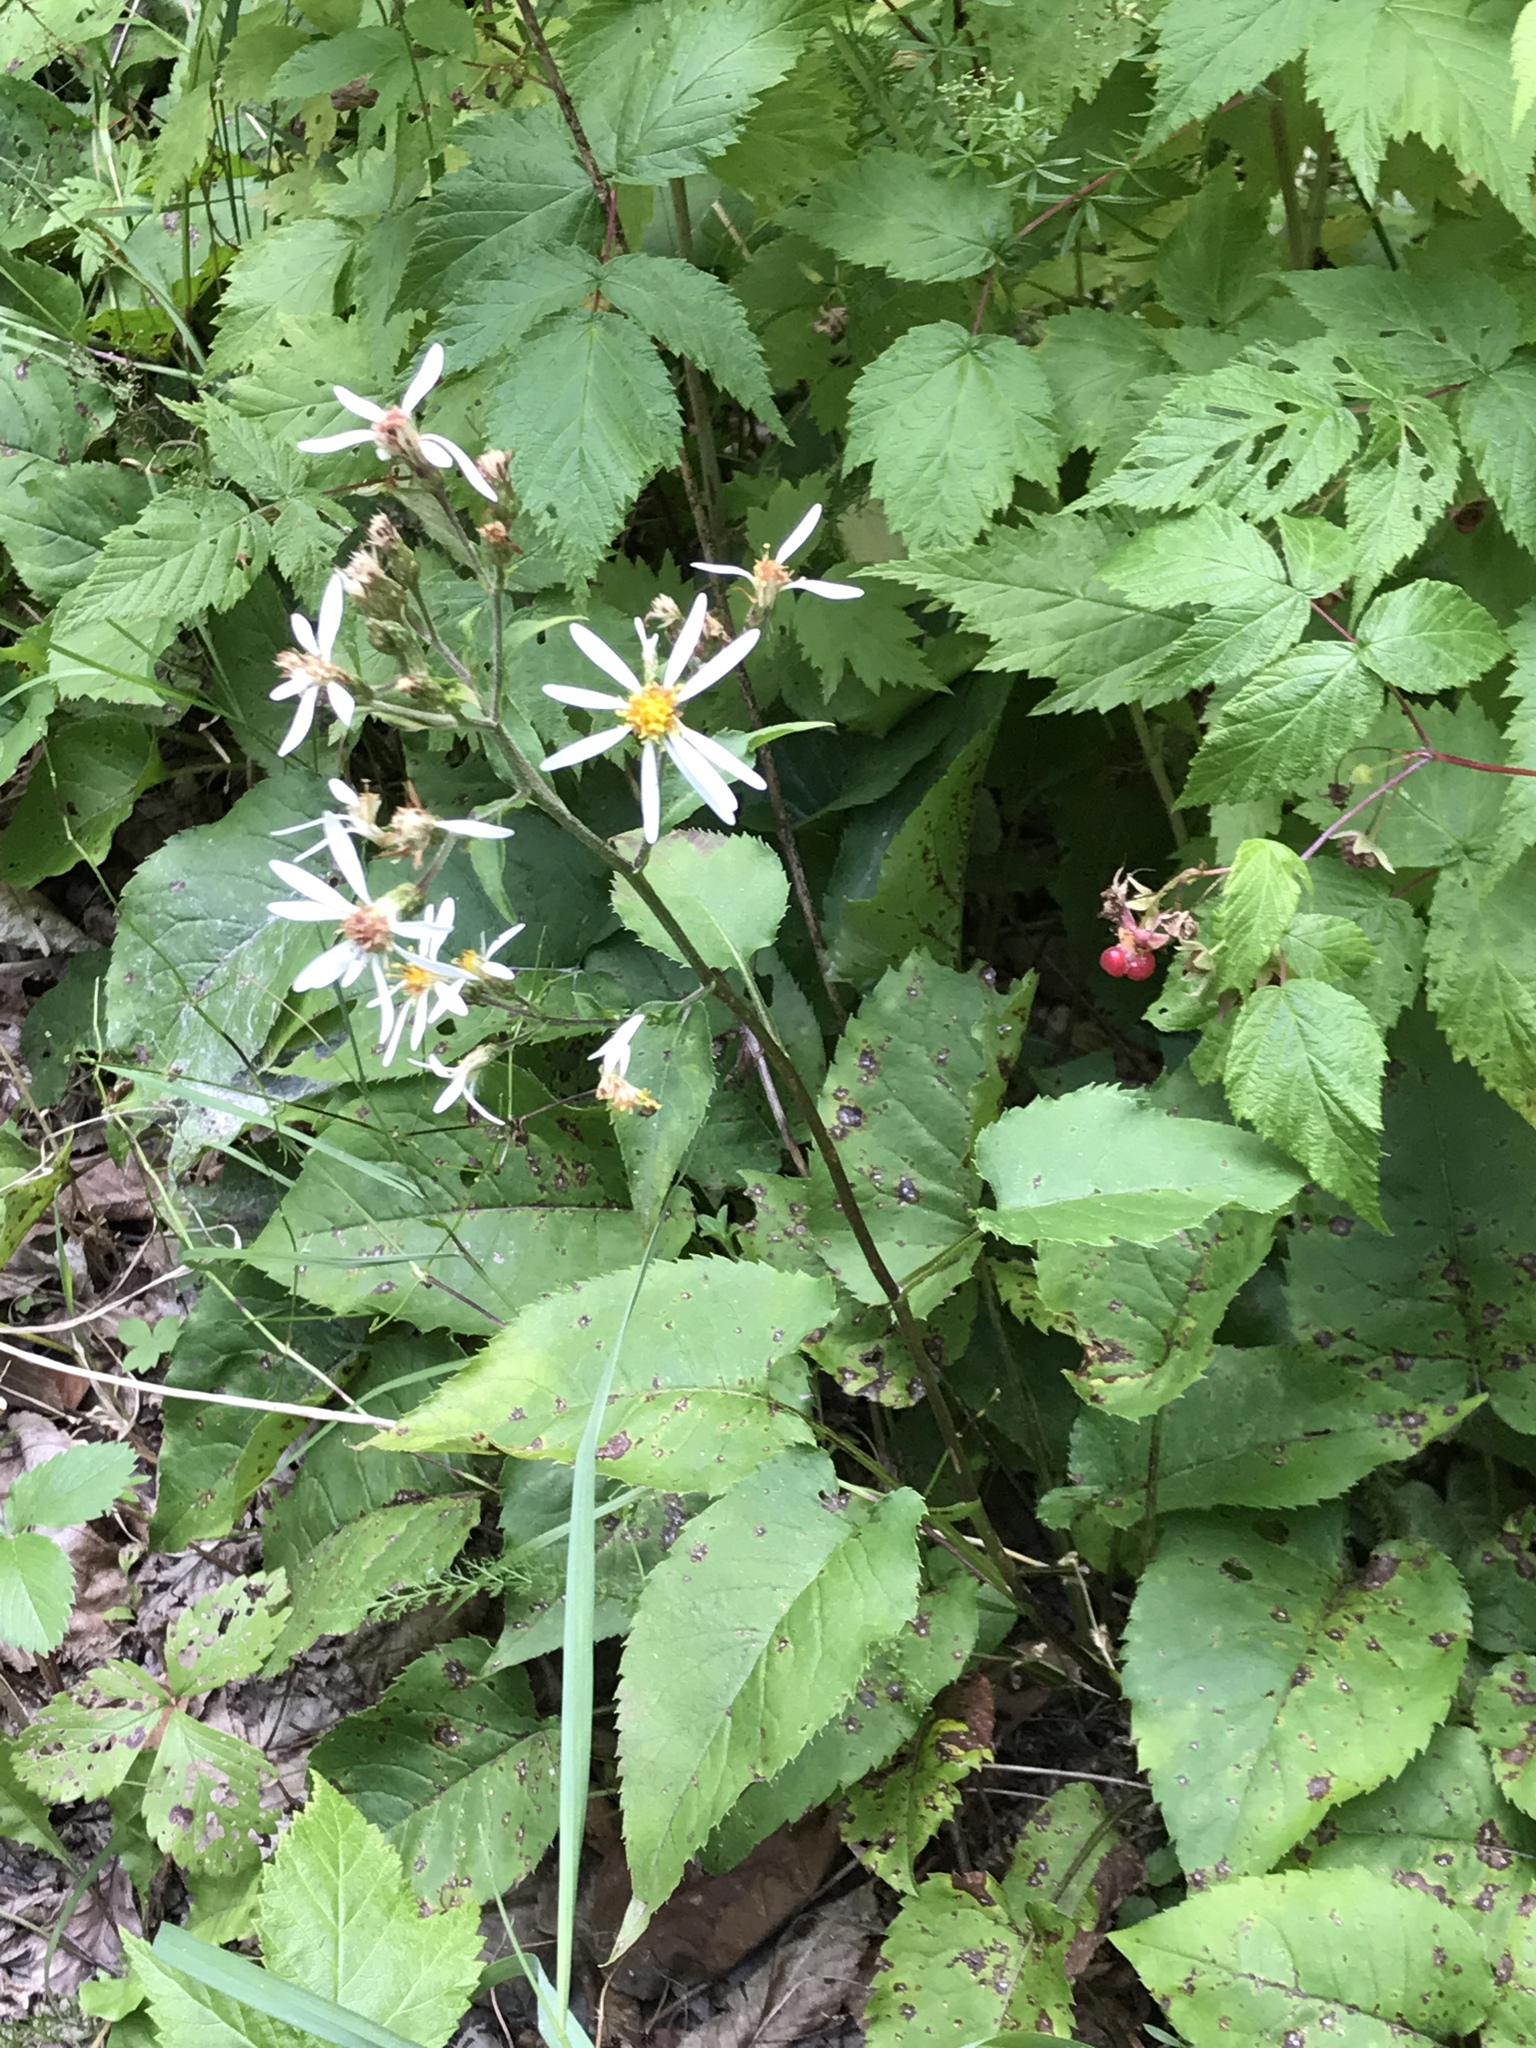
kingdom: Plantae
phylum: Tracheophyta
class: Magnoliopsida
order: Asterales
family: Asteraceae
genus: Eurybia
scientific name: Eurybia macrophylla
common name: Big-leaved aster
